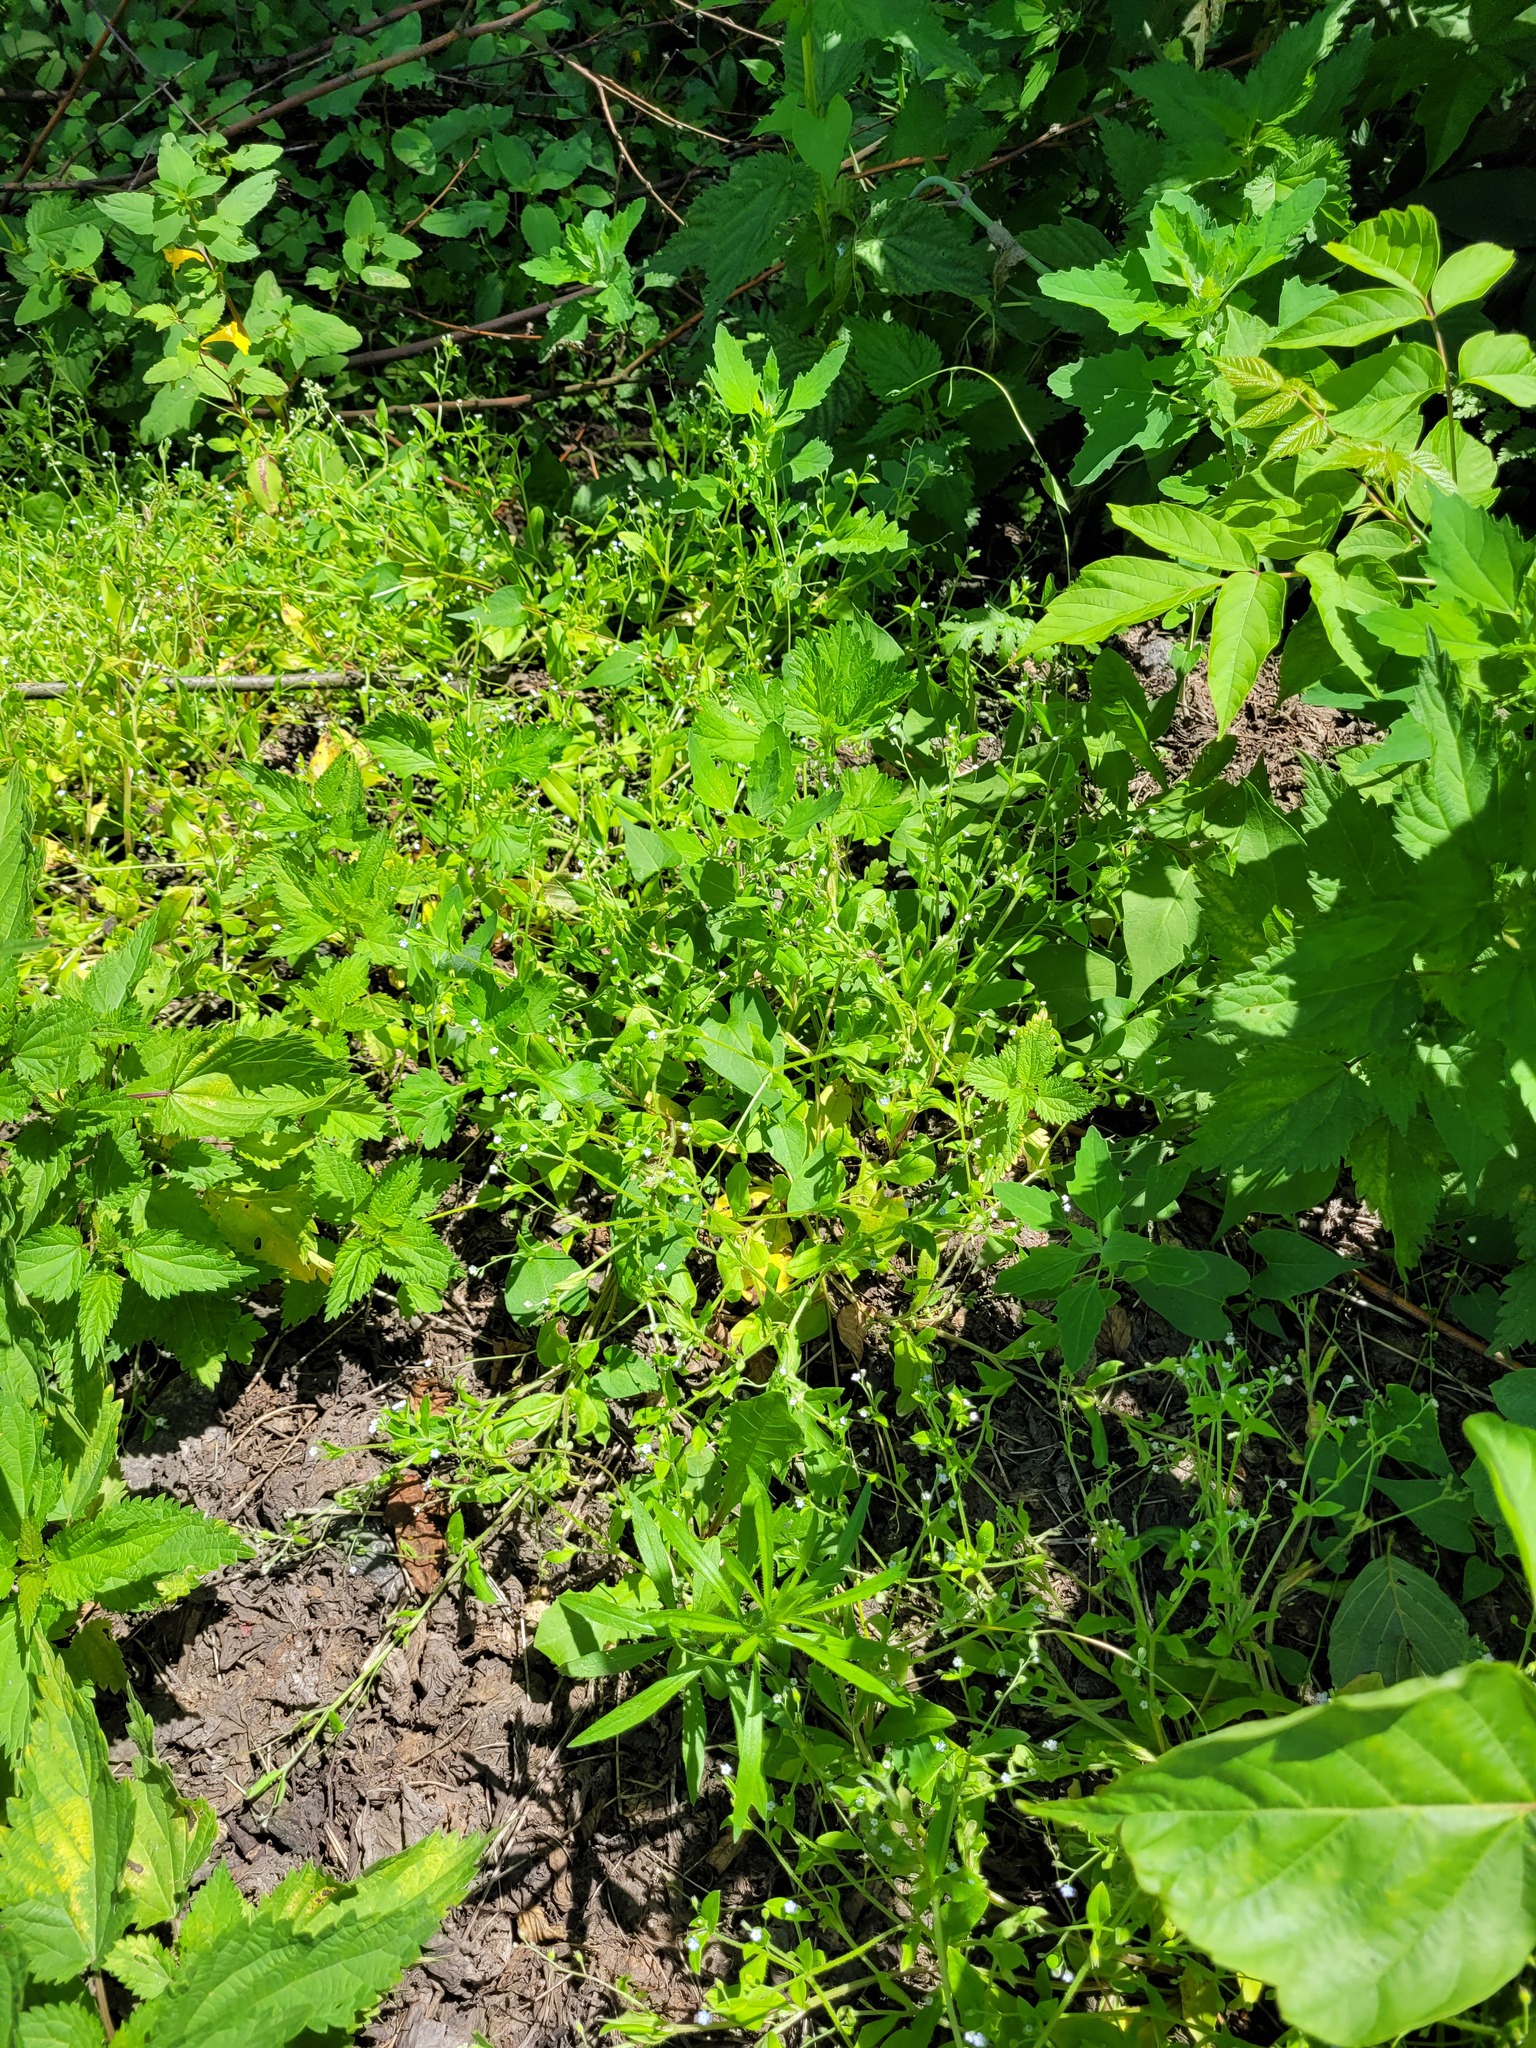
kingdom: Plantae
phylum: Tracheophyta
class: Magnoliopsida
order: Boraginales
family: Boraginaceae
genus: Myosotis
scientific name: Myosotis sparsiflora
